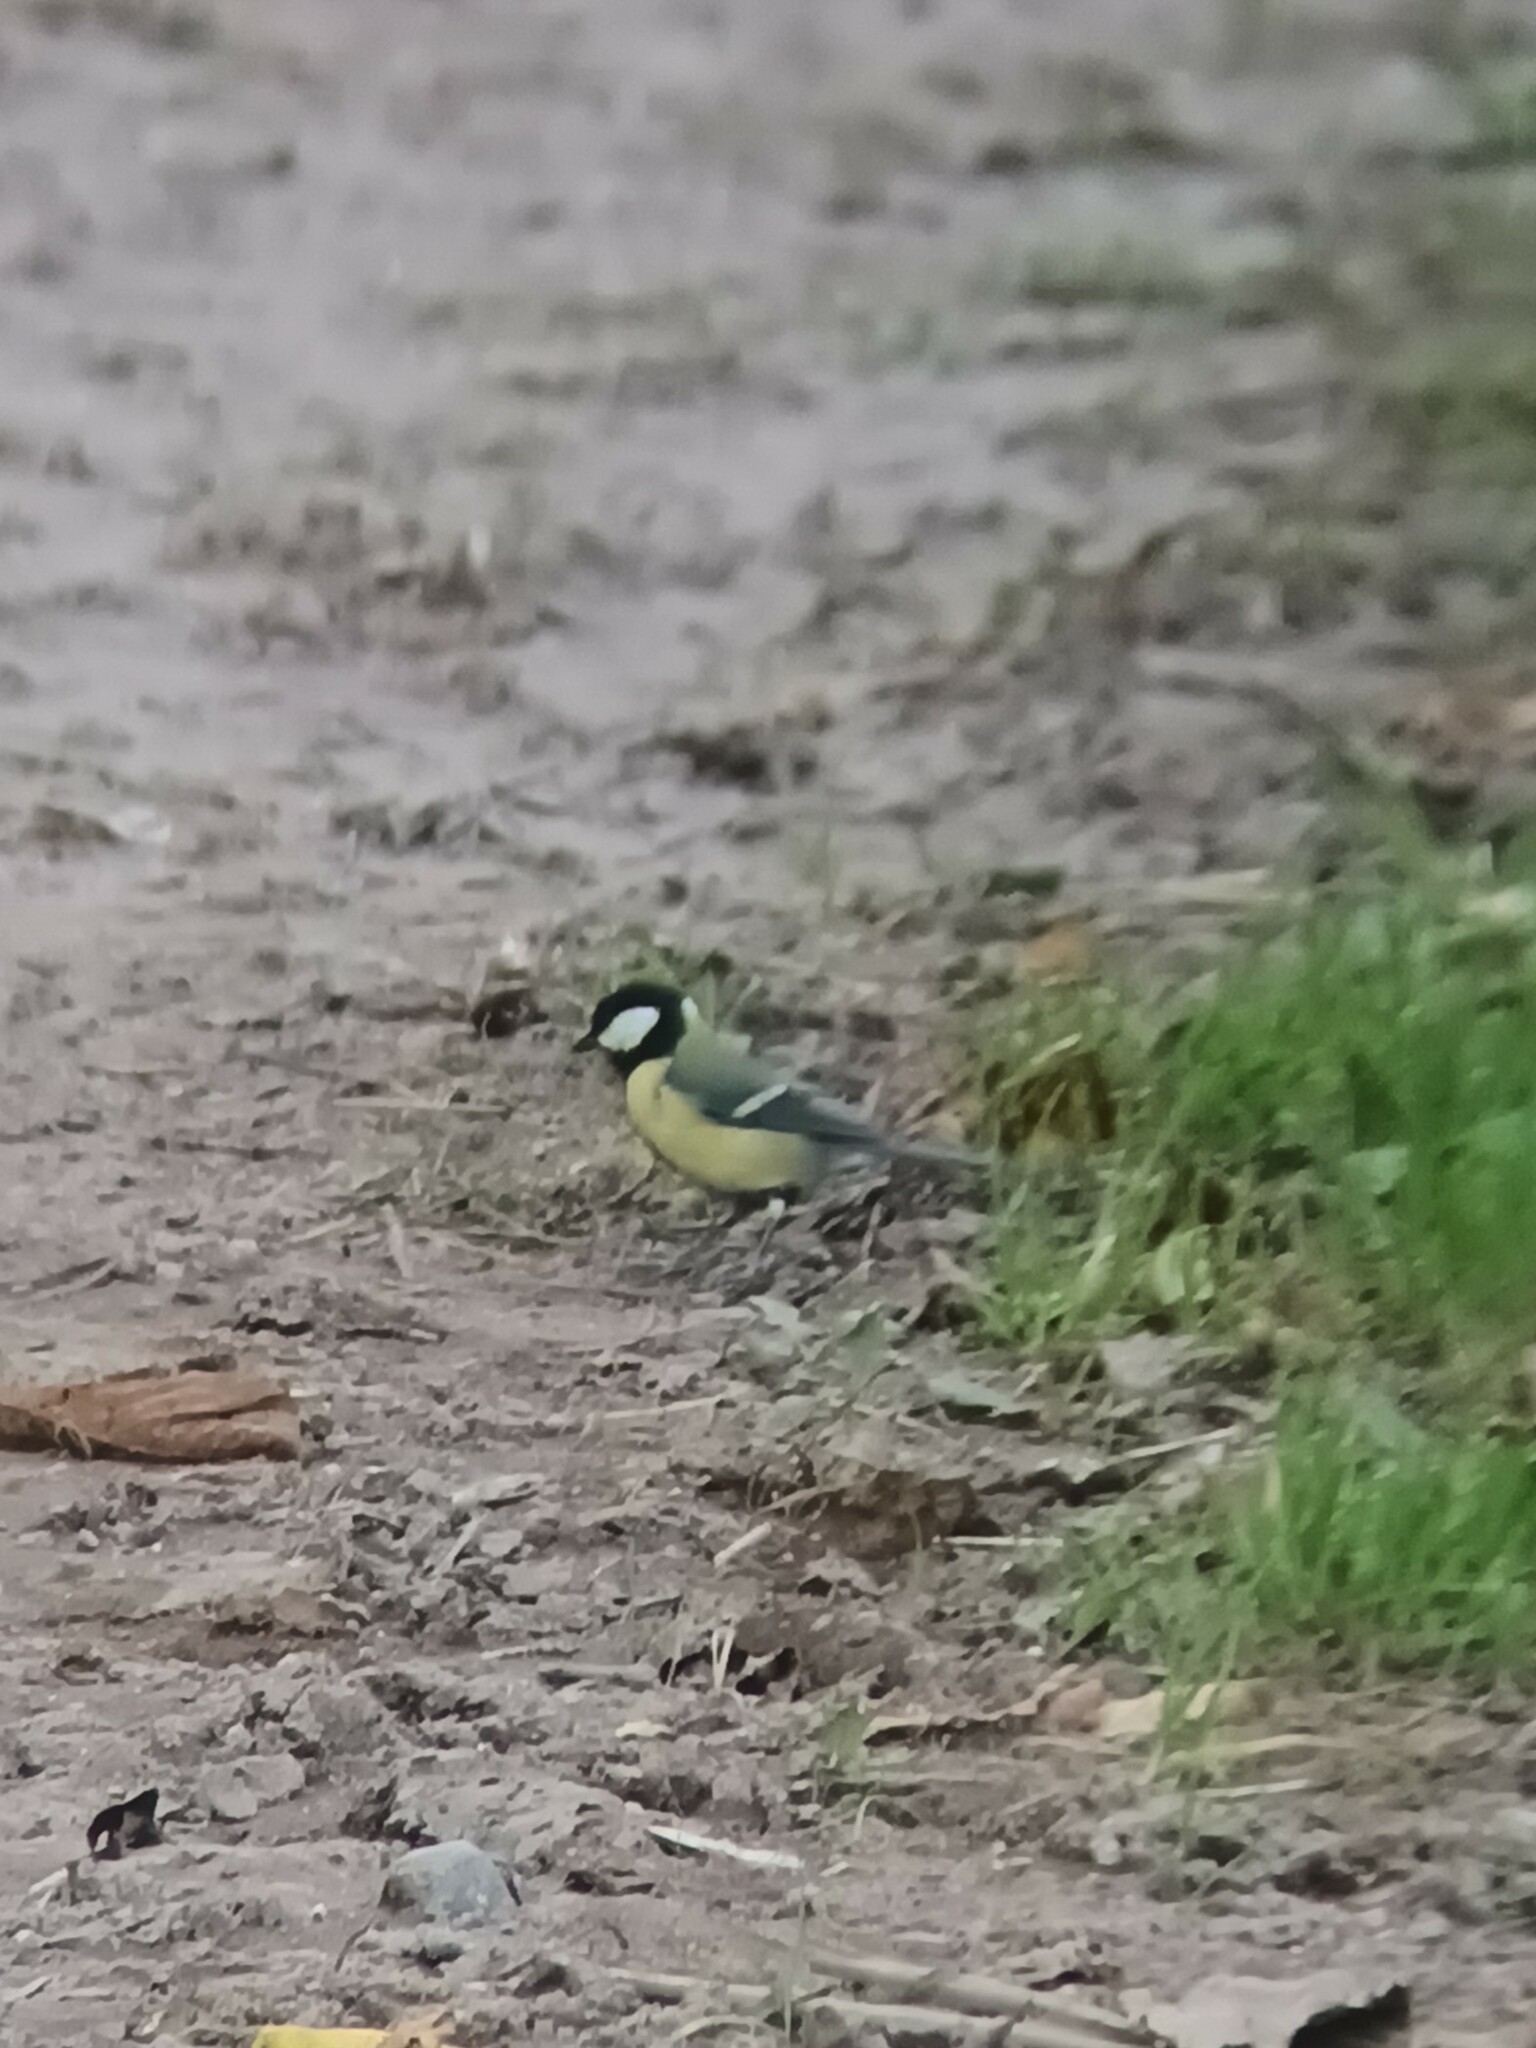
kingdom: Animalia
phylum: Chordata
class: Aves
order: Passeriformes
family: Paridae
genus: Parus
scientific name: Parus major
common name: Great tit
